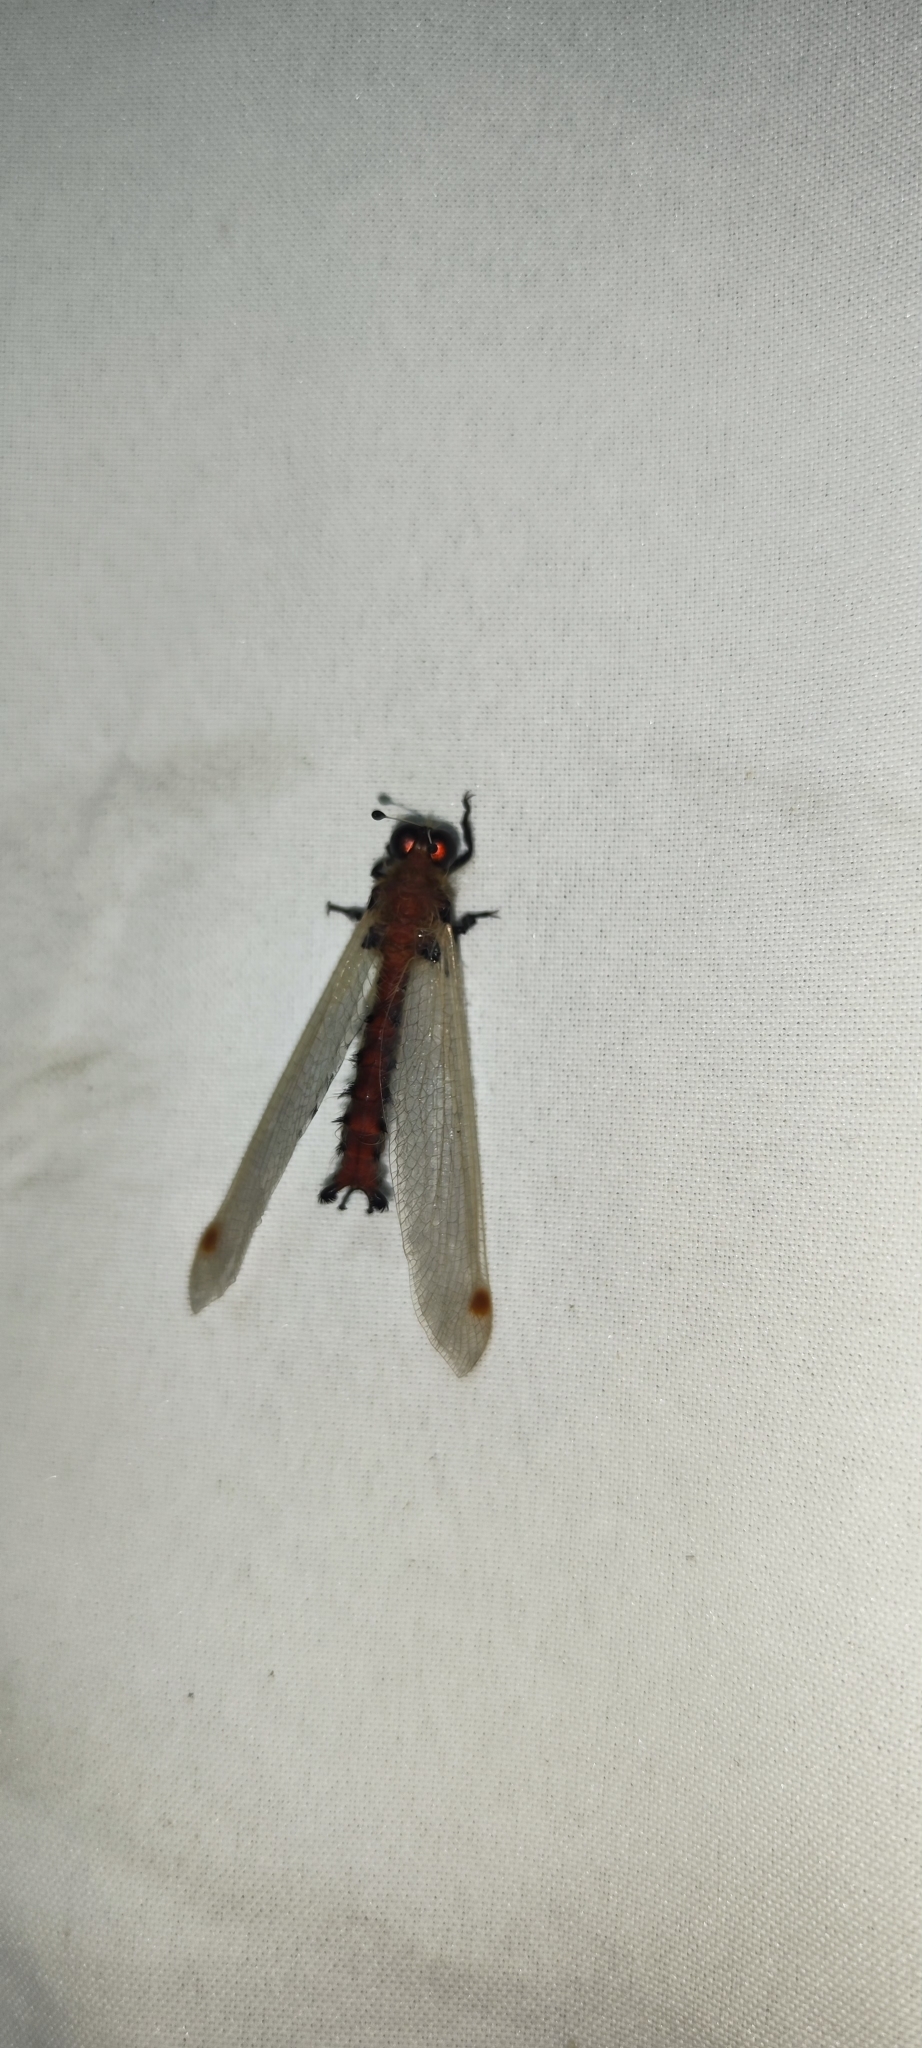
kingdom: Animalia
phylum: Arthropoda
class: Insecta
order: Neuroptera
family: Ascalaphidae
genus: Albardia
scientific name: Albardia furcata
